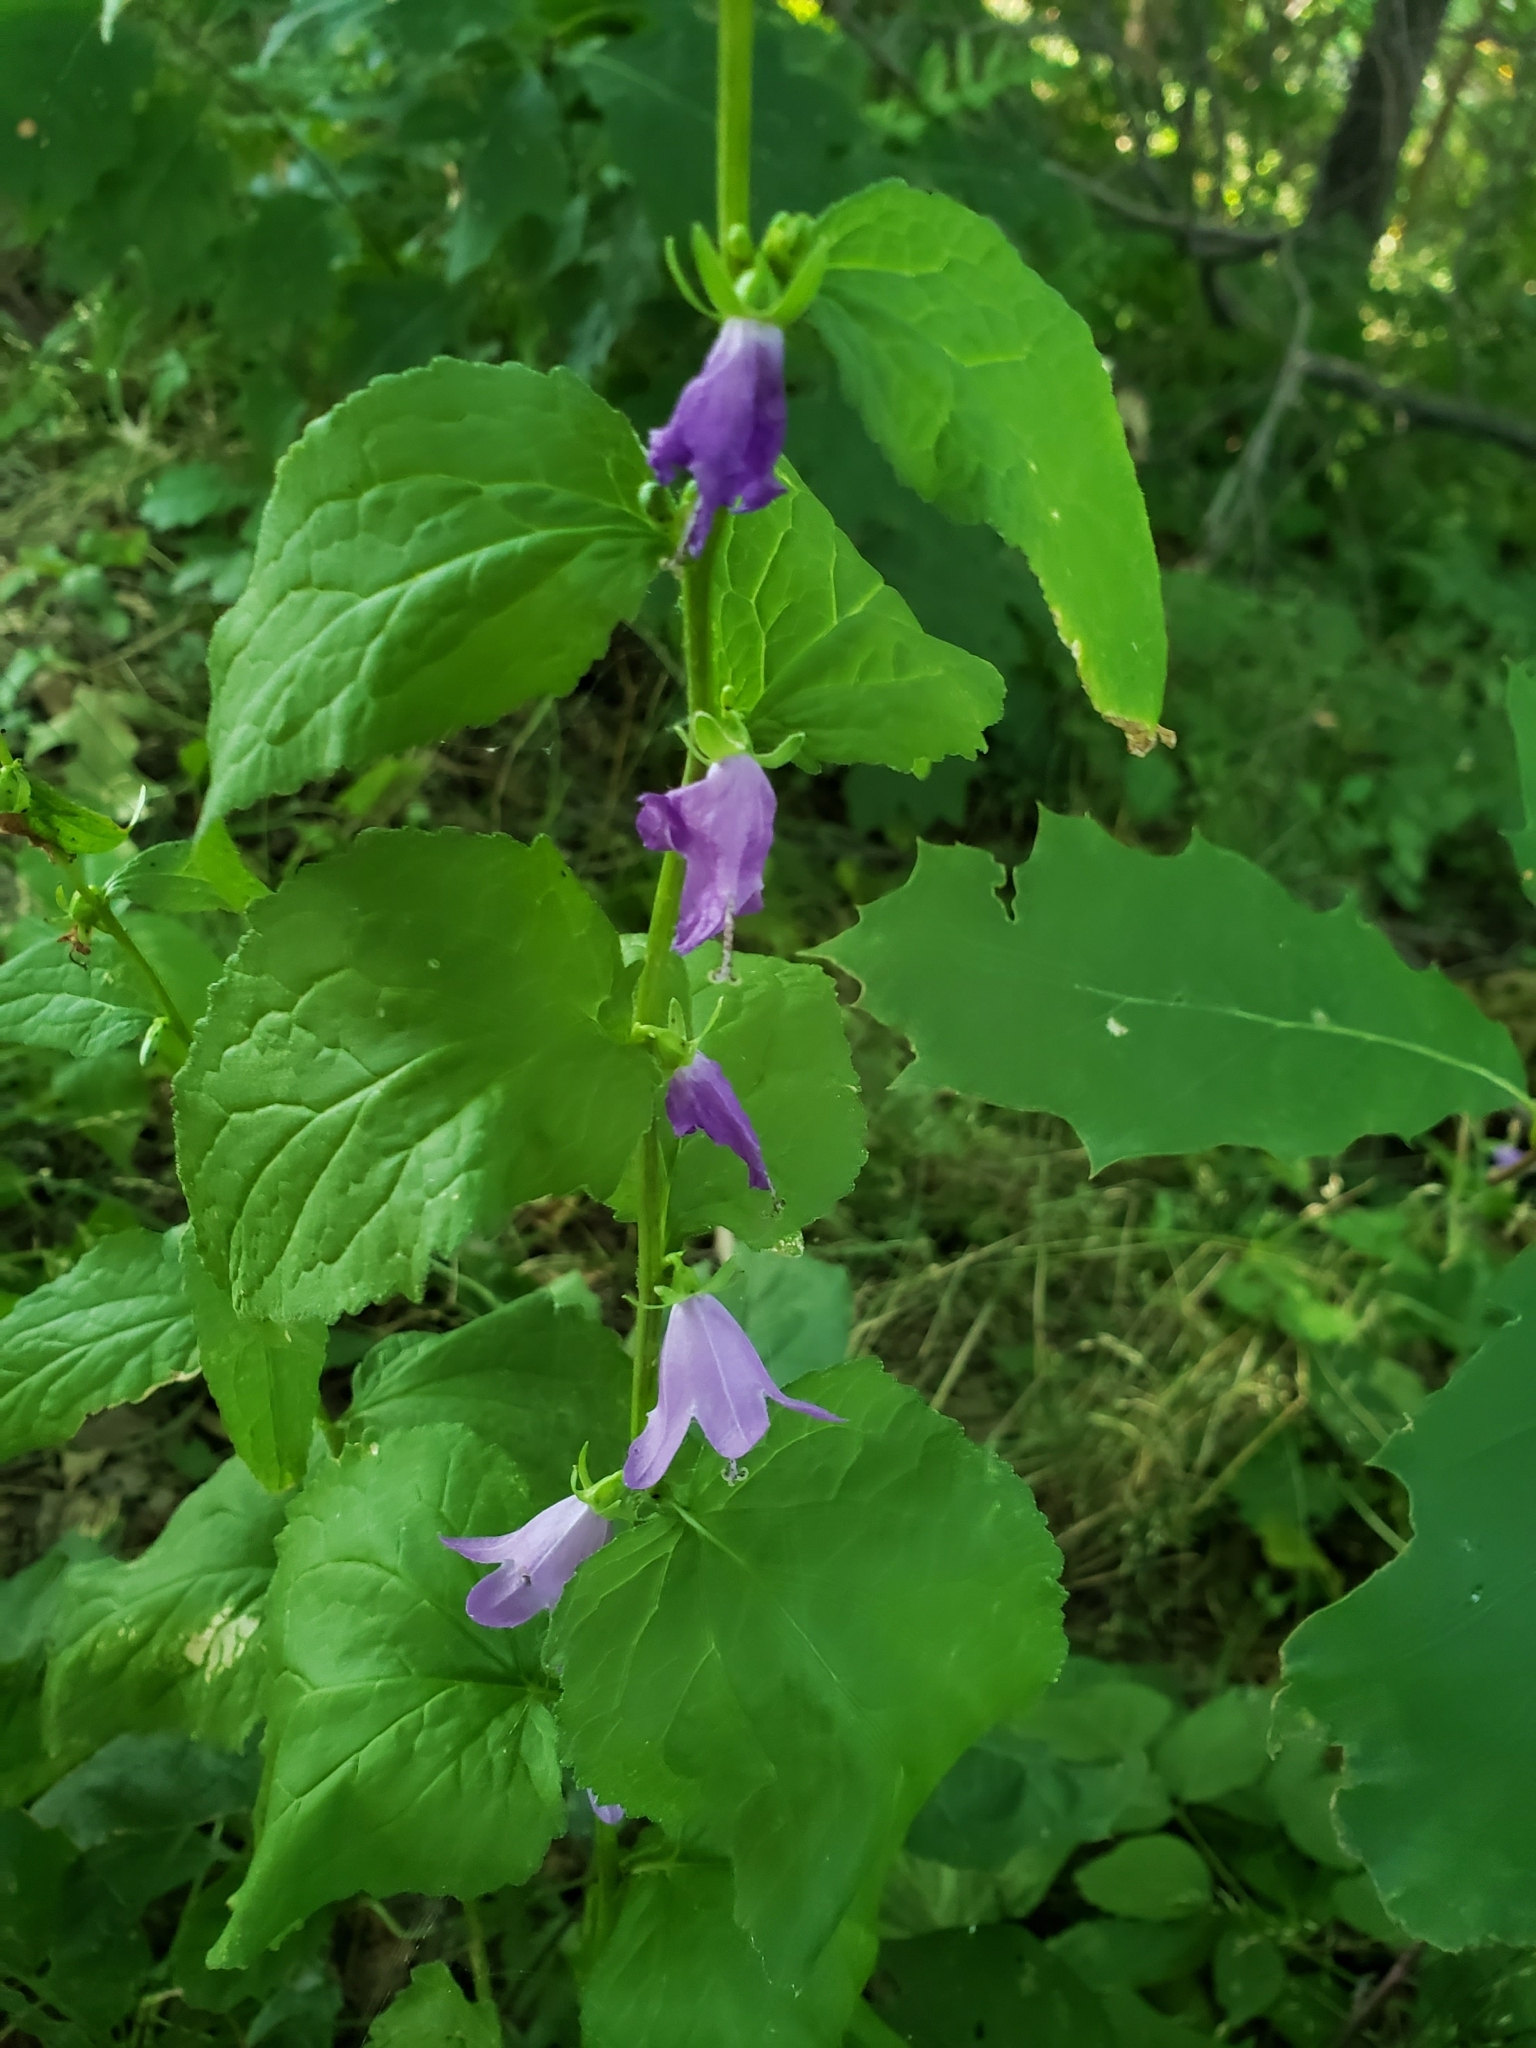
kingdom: Plantae
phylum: Tracheophyta
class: Magnoliopsida
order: Asterales
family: Campanulaceae
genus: Campanula
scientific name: Campanula rapunculoides
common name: Creeping bellflower
